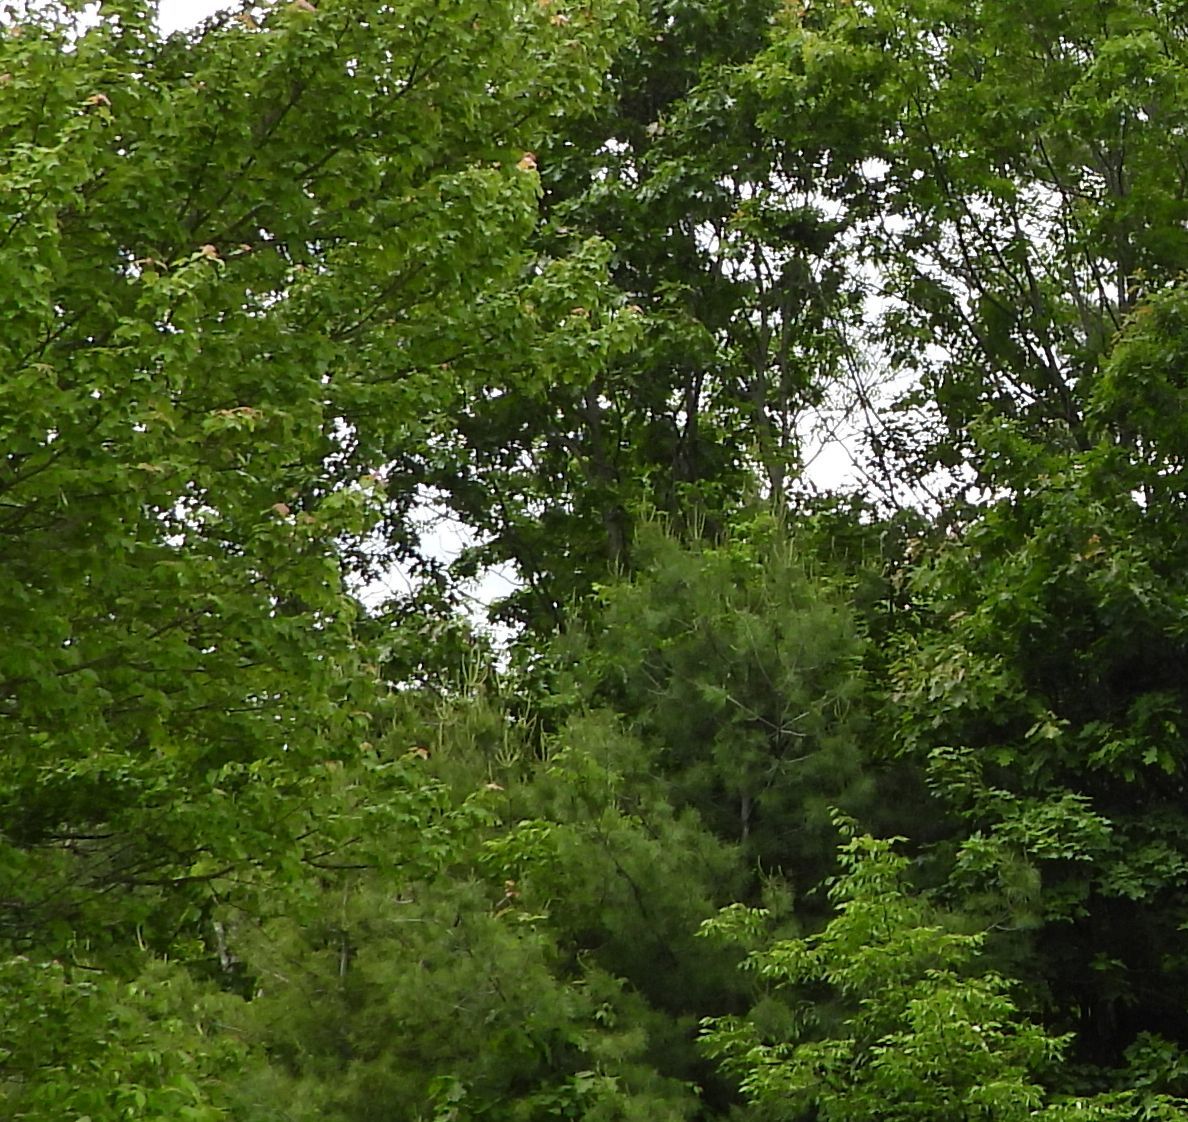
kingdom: Animalia
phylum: Chordata
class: Aves
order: Passeriformes
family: Cardinalidae
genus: Passerina
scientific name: Passerina cyanea
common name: Indigo bunting
